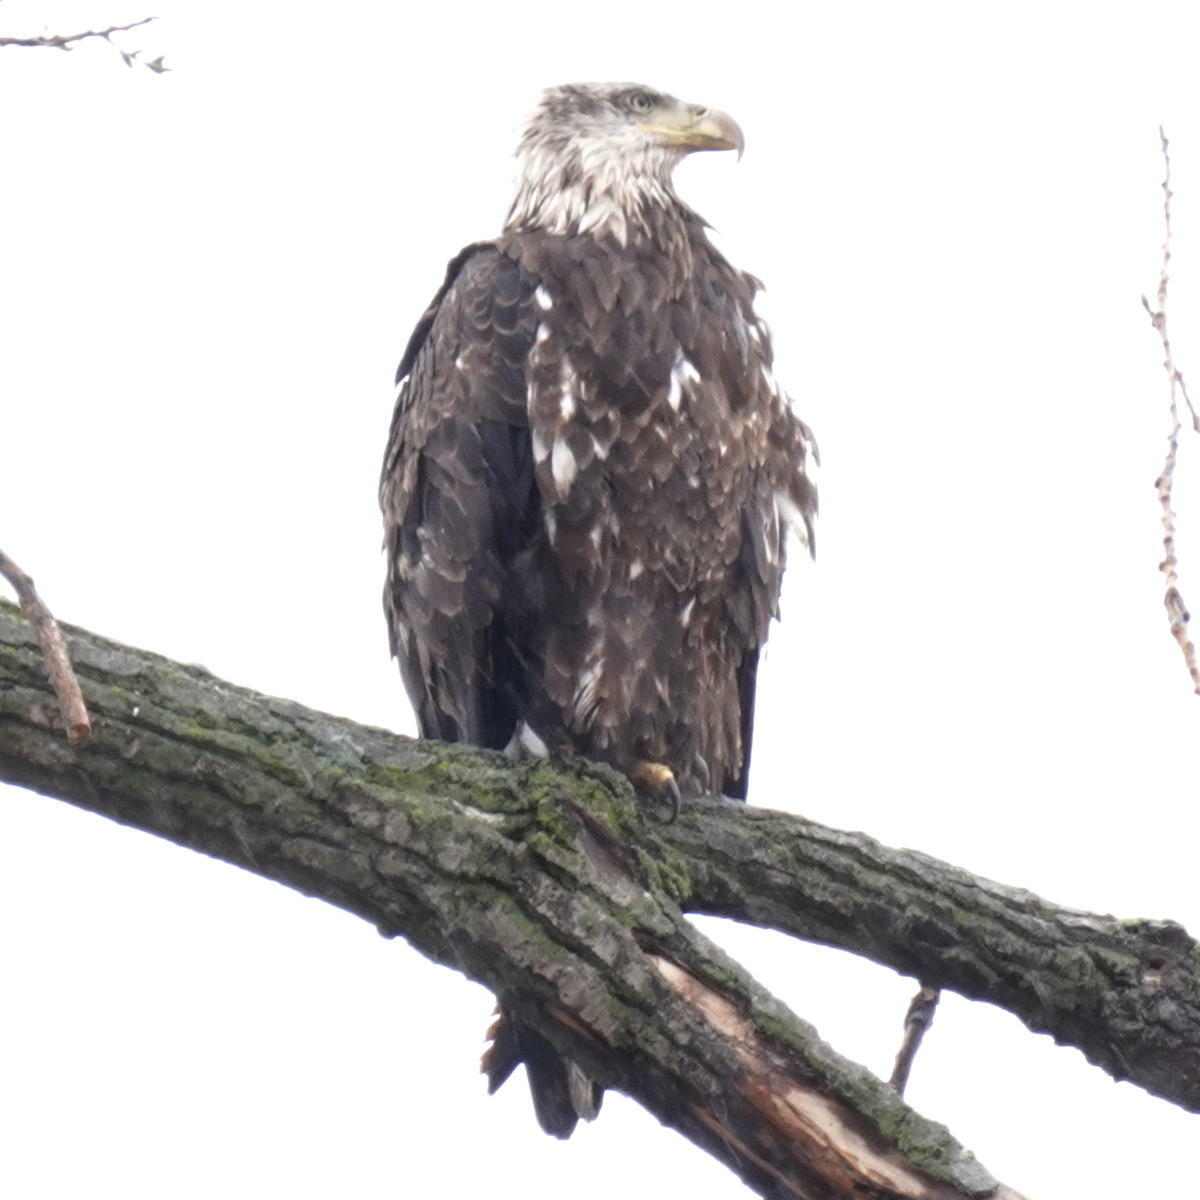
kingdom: Animalia
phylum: Chordata
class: Aves
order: Accipitriformes
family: Accipitridae
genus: Haliaeetus
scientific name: Haliaeetus leucocephalus
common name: Bald eagle
